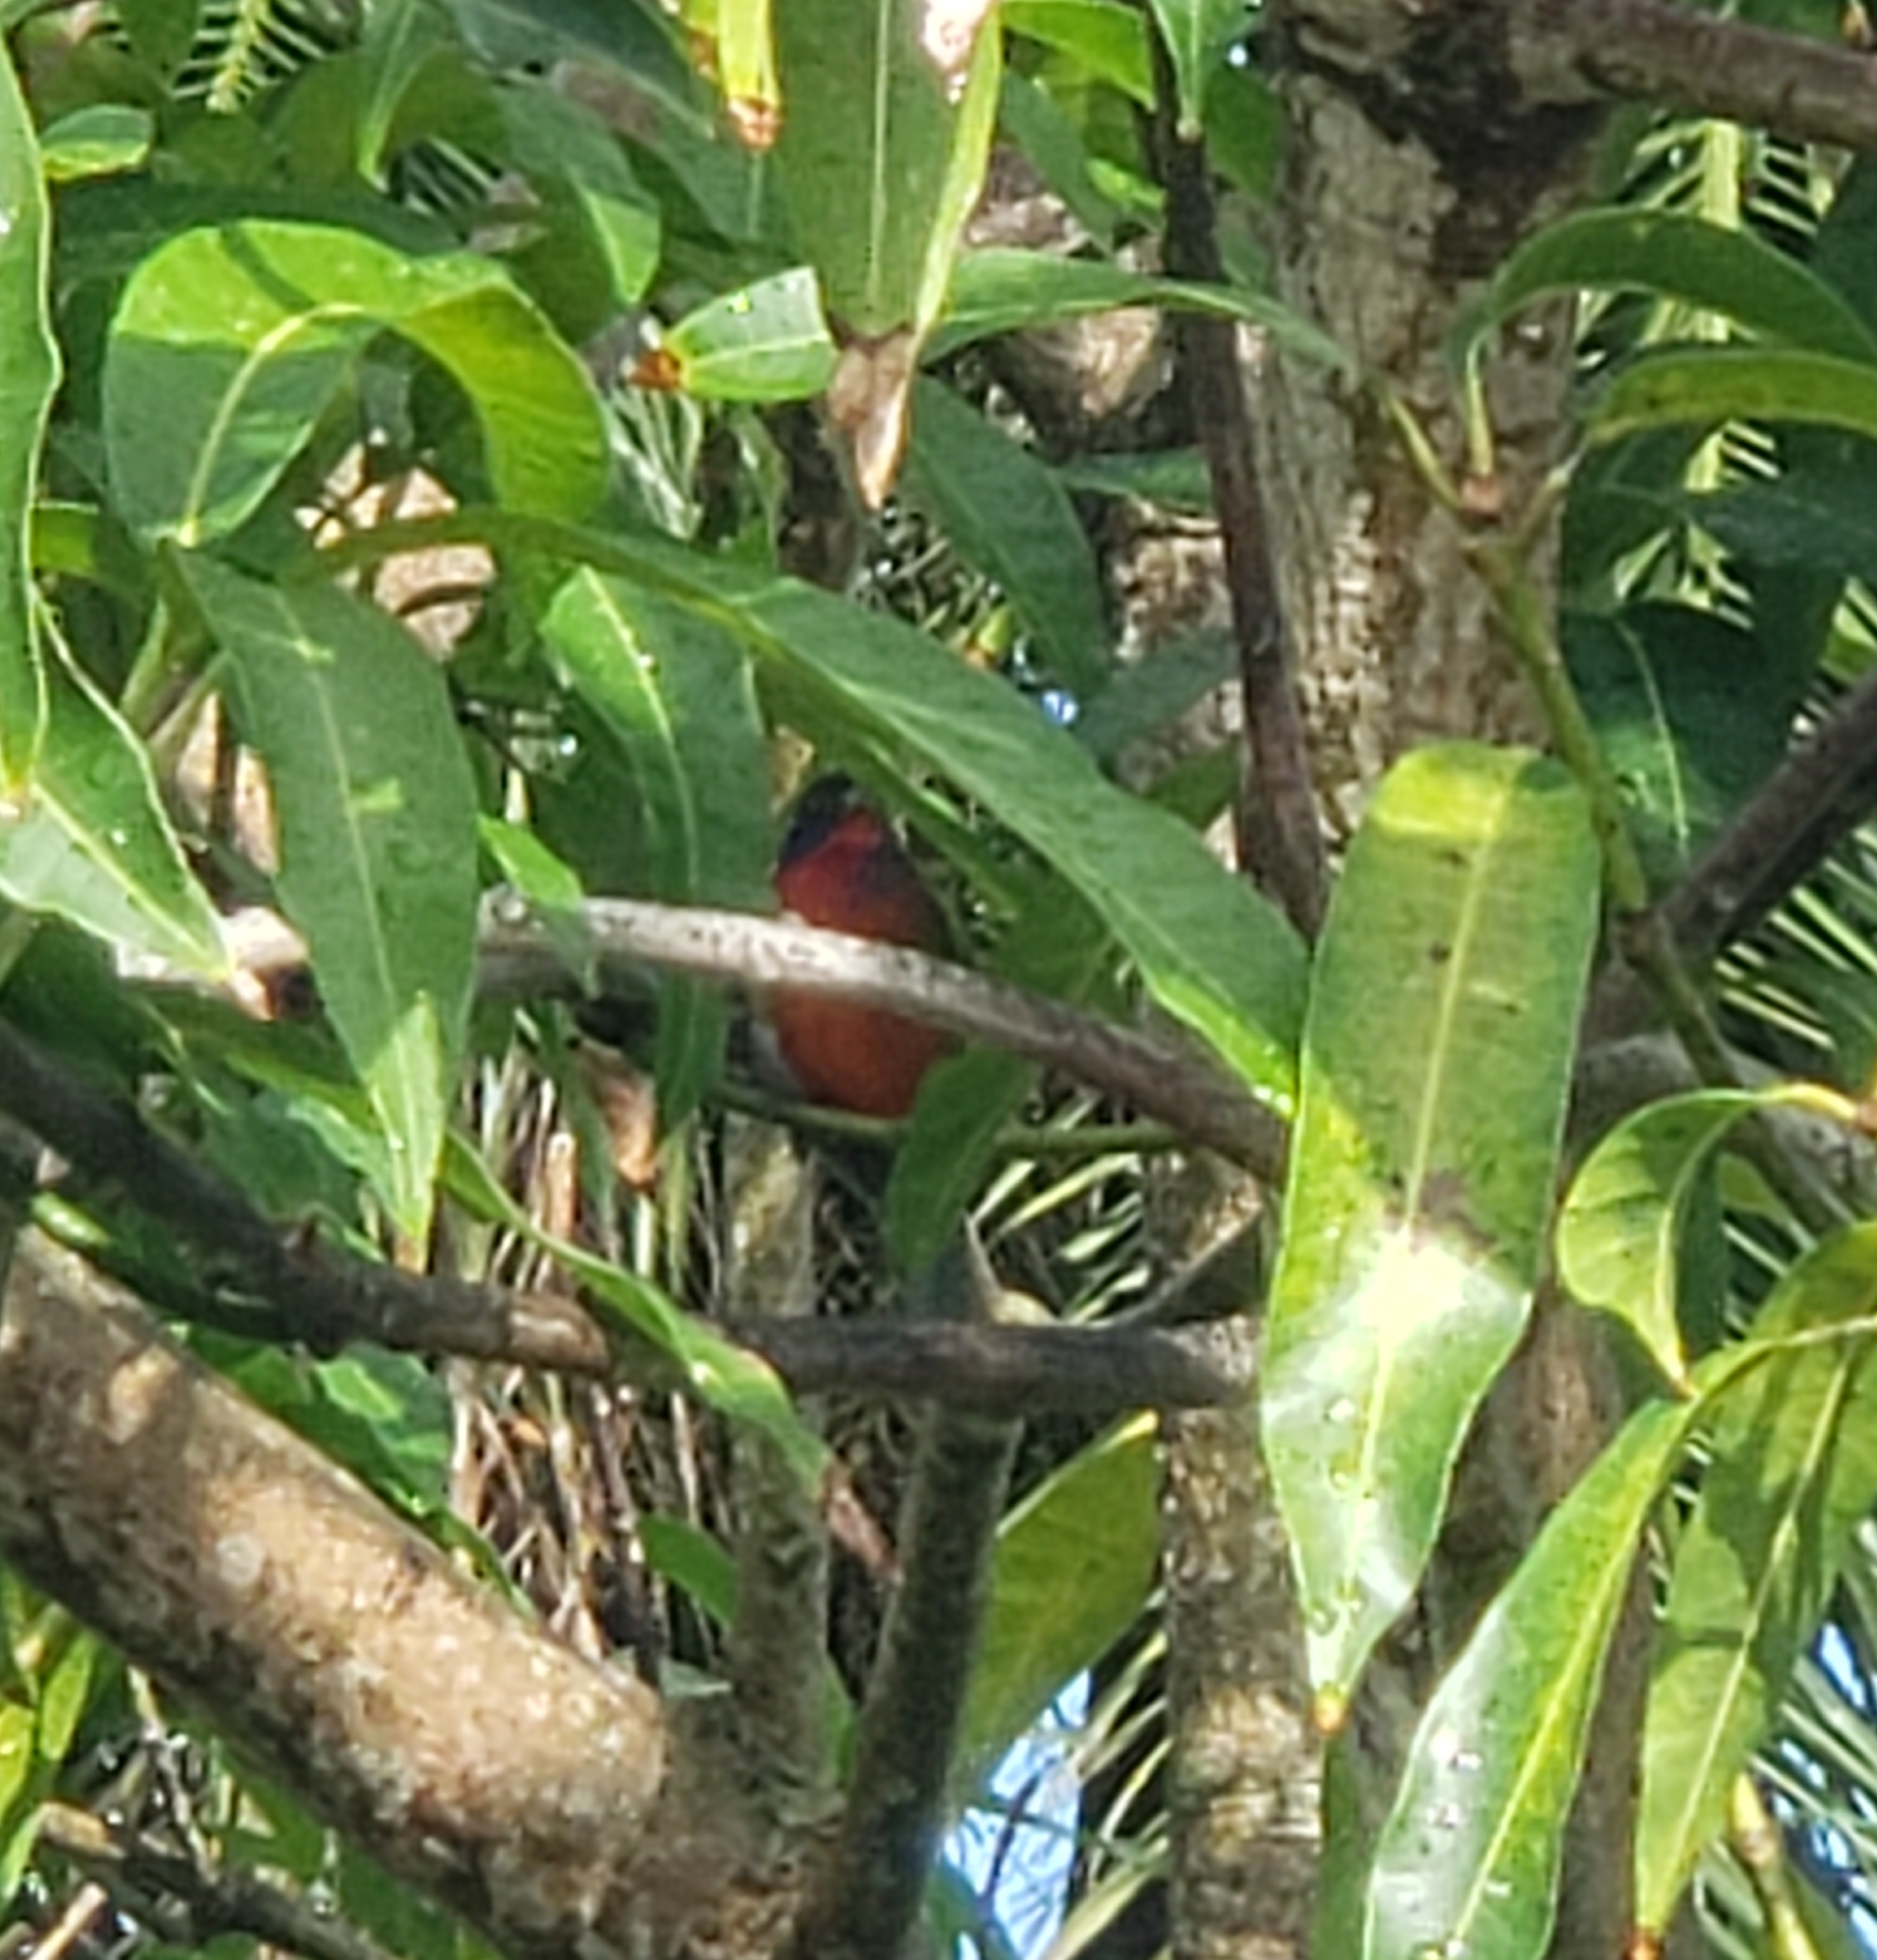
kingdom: Animalia
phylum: Chordata
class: Aves
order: Passeriformes
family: Cardinalidae
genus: Passerina
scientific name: Passerina ciris
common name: Painted bunting
